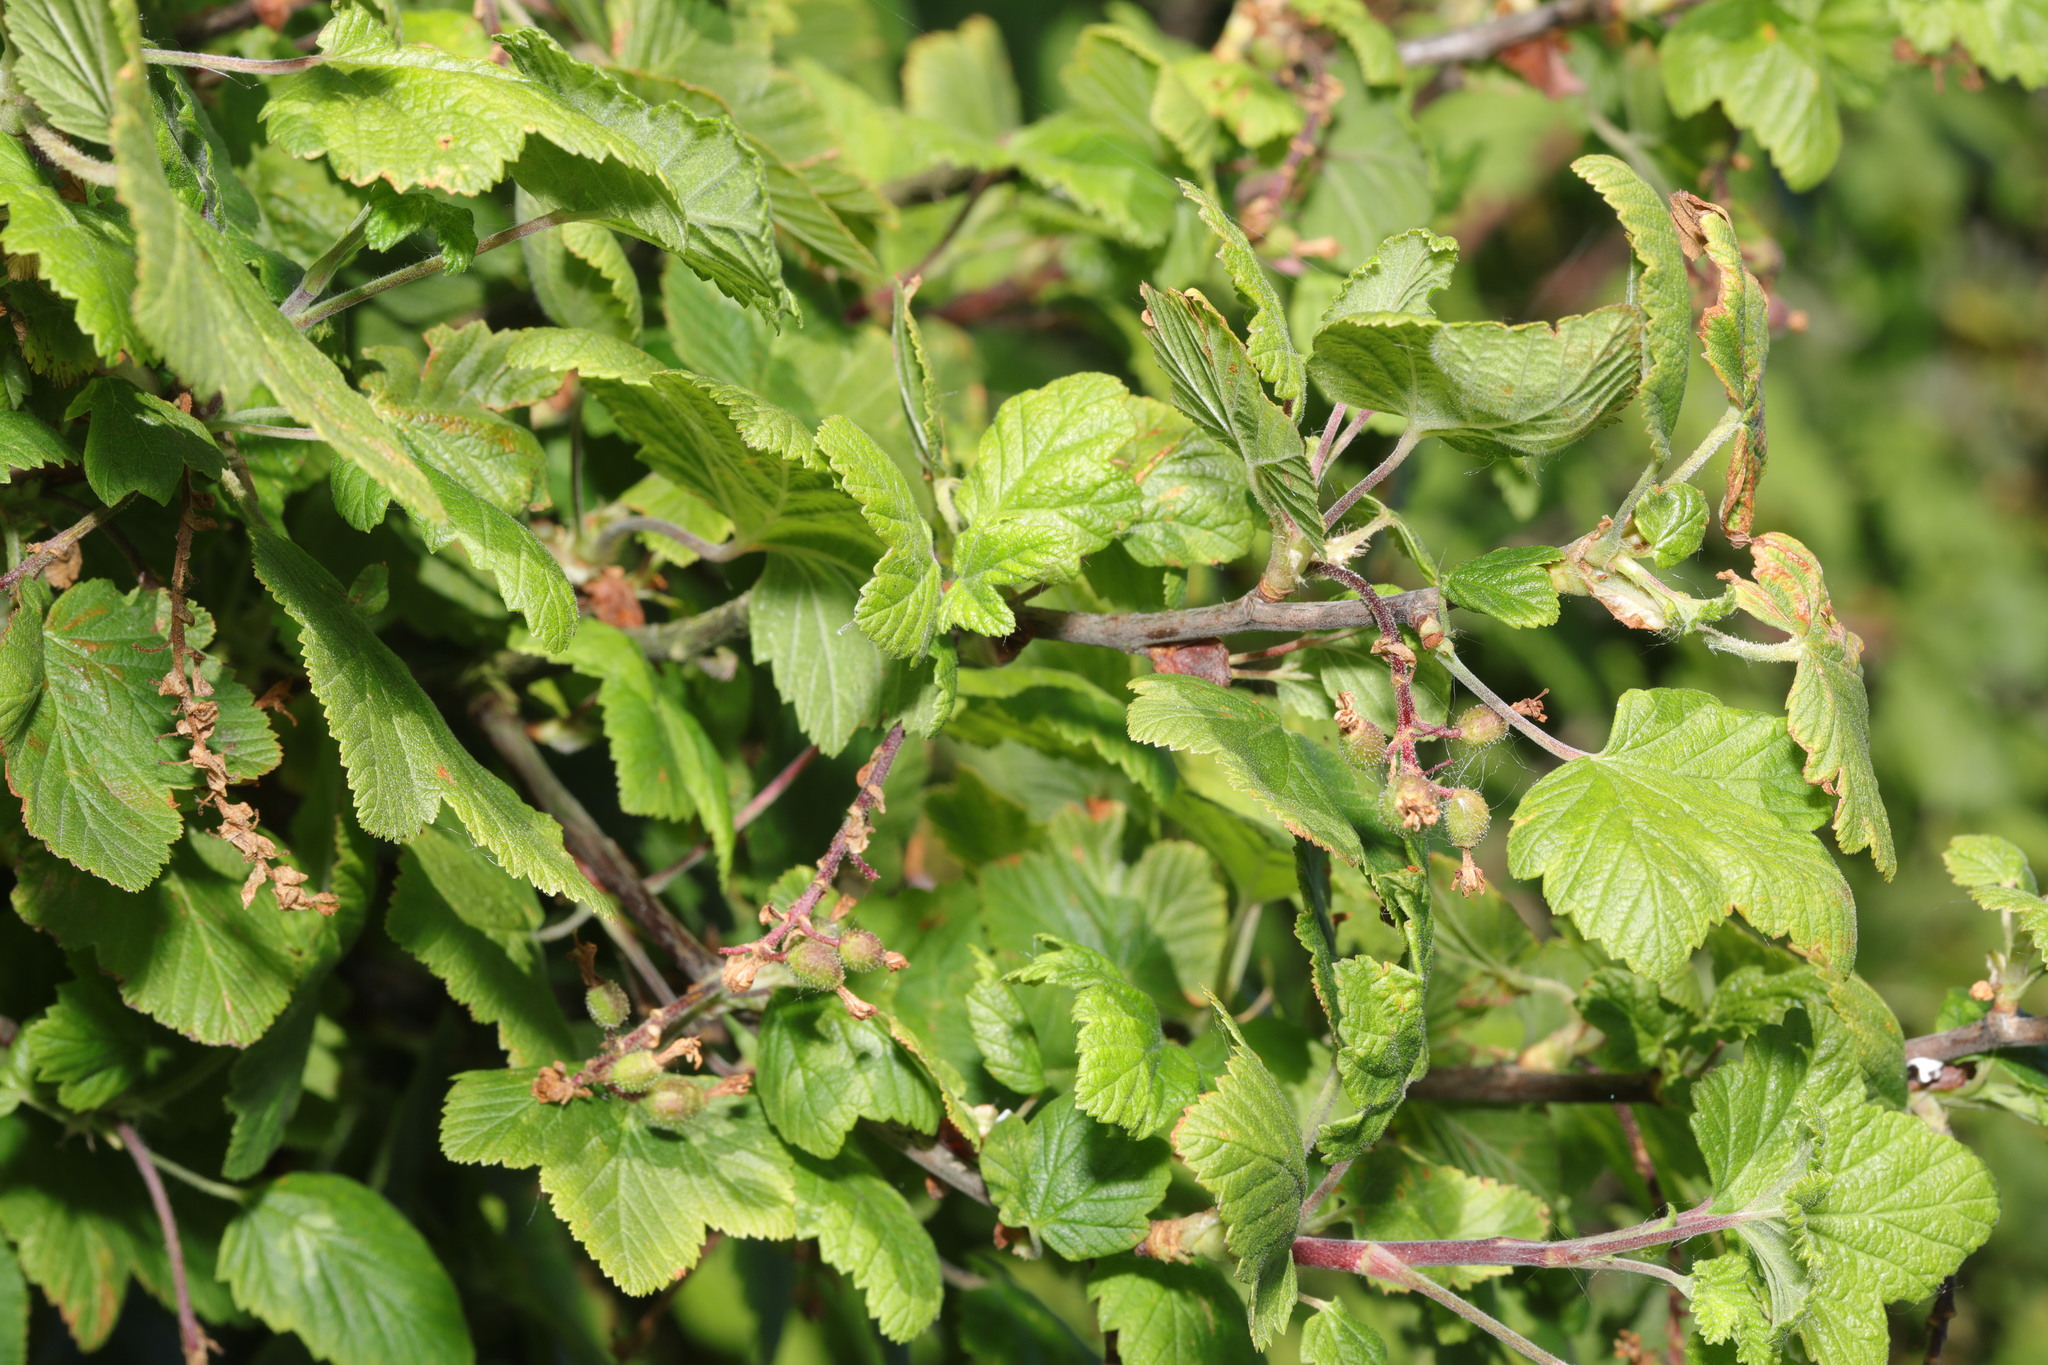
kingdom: Plantae
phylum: Tracheophyta
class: Magnoliopsida
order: Saxifragales
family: Grossulariaceae
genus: Ribes
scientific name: Ribes sanguineum
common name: Flowering currant
